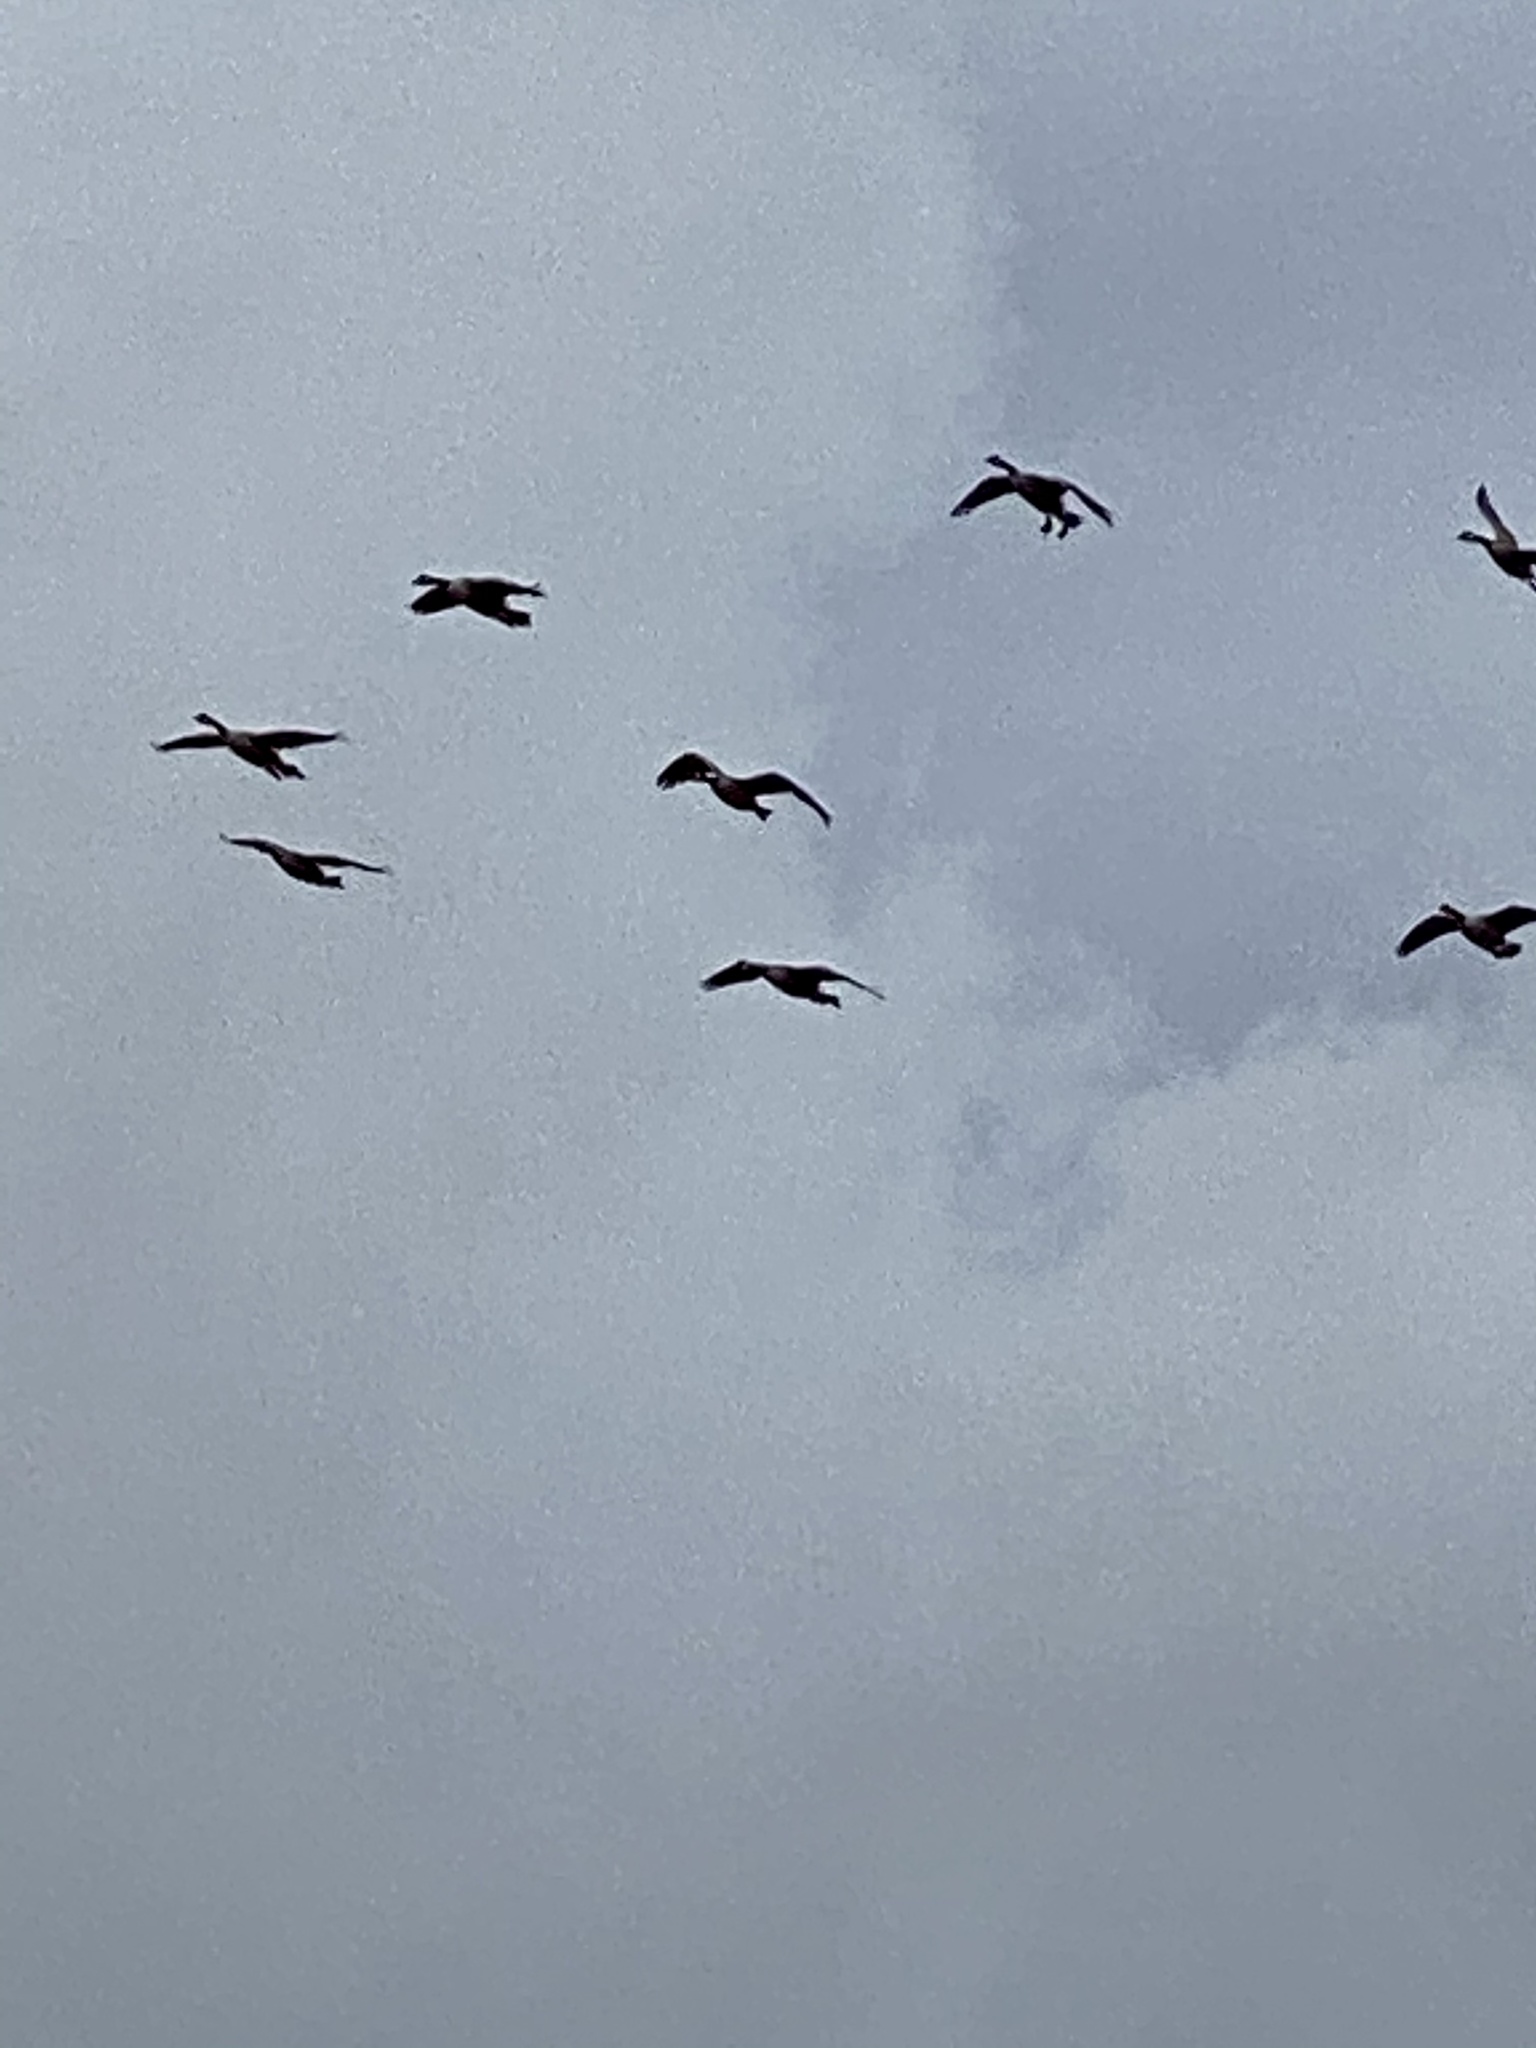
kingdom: Animalia
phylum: Chordata
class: Aves
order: Anseriformes
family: Anatidae
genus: Branta
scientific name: Branta canadensis
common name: Canada goose
